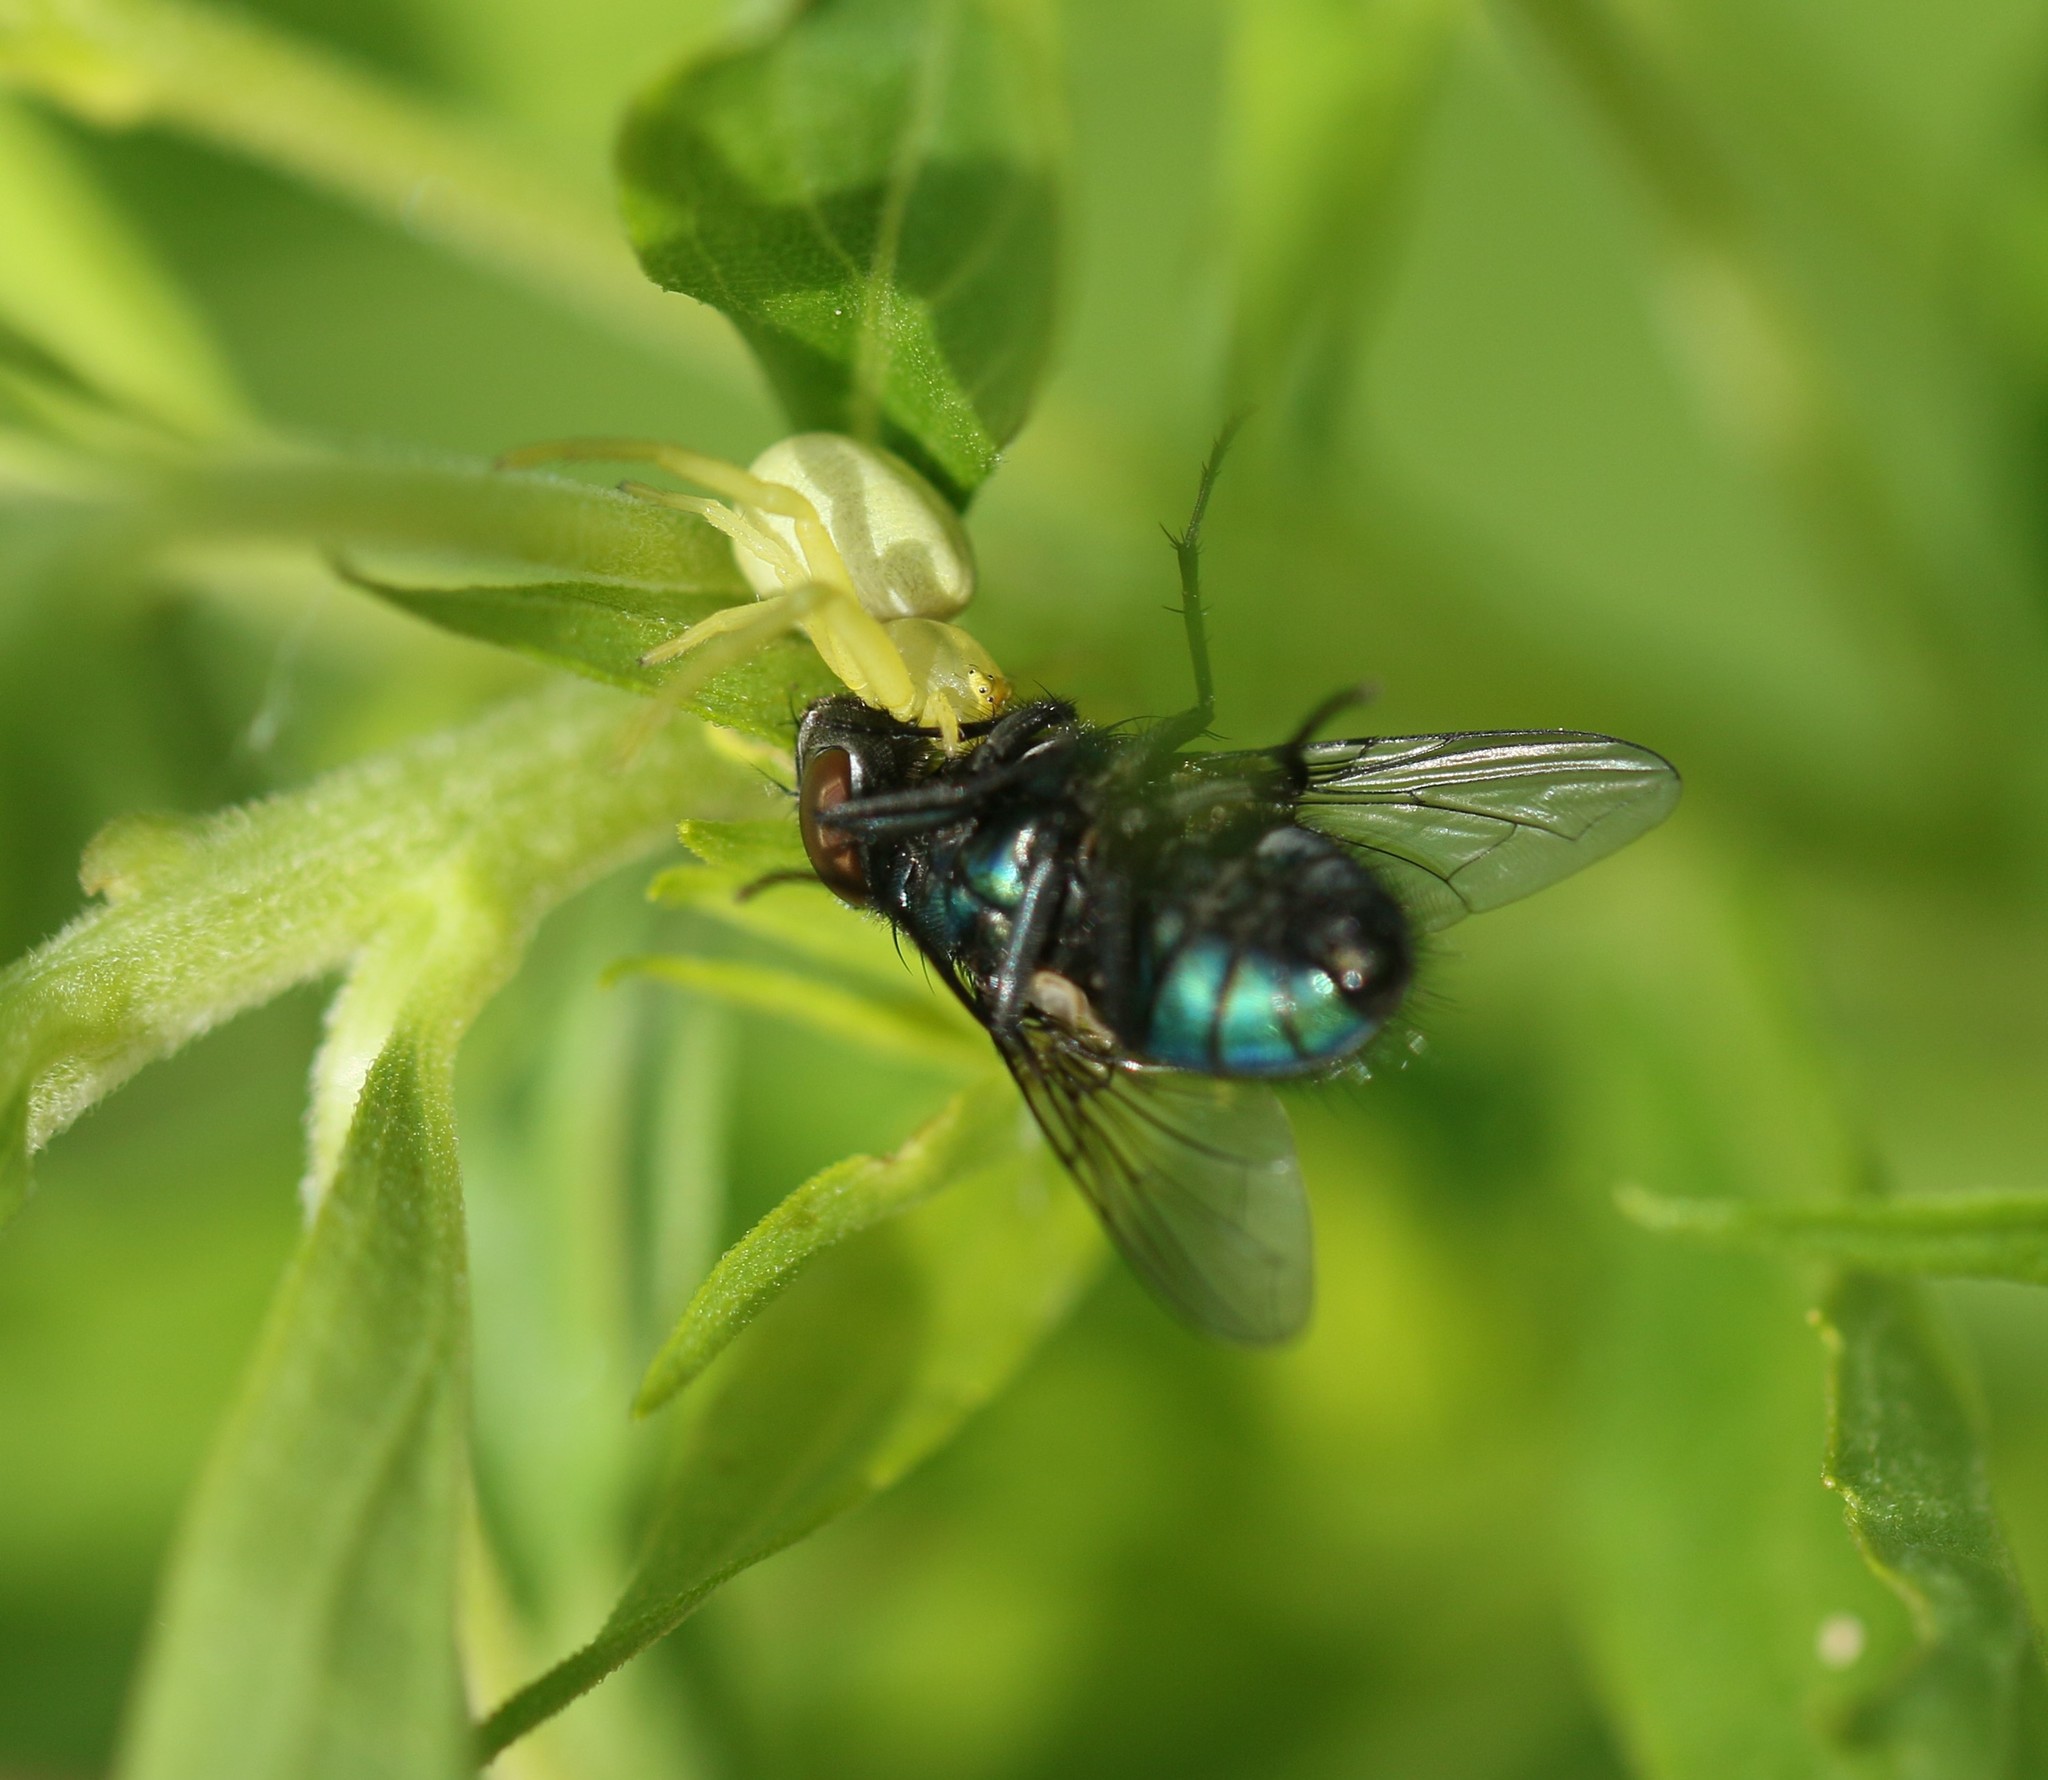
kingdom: Animalia
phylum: Arthropoda
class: Arachnida
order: Araneae
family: Thomisidae
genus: Misumena
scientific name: Misumena vatia
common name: Goldenrod crab spider
